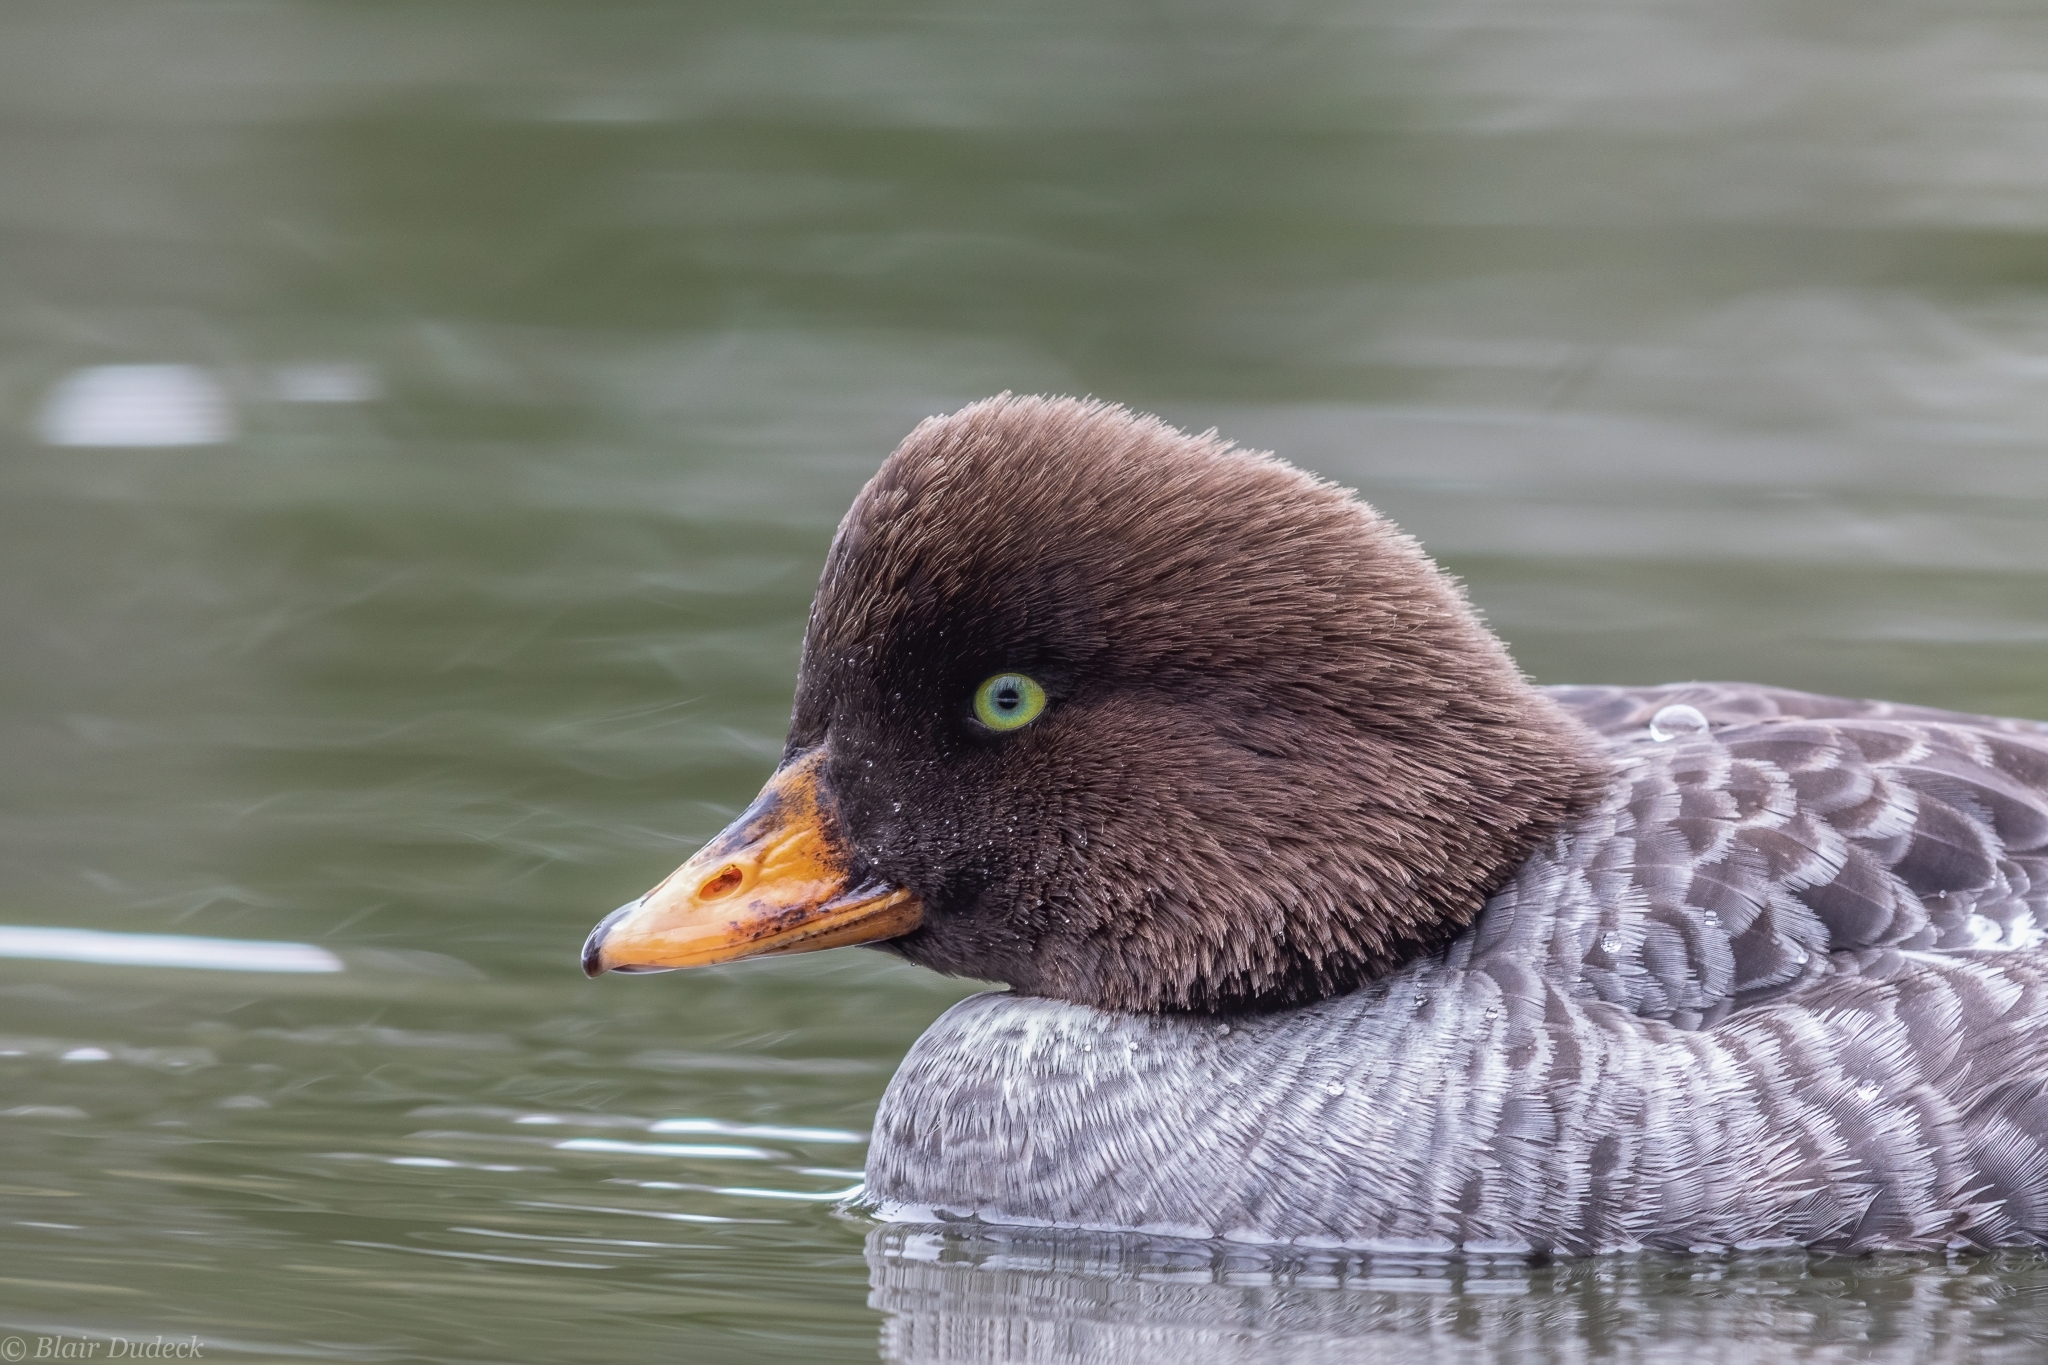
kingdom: Animalia
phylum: Chordata
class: Aves
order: Anseriformes
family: Anatidae
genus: Bucephala
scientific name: Bucephala islandica
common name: Barrow's goldeneye
